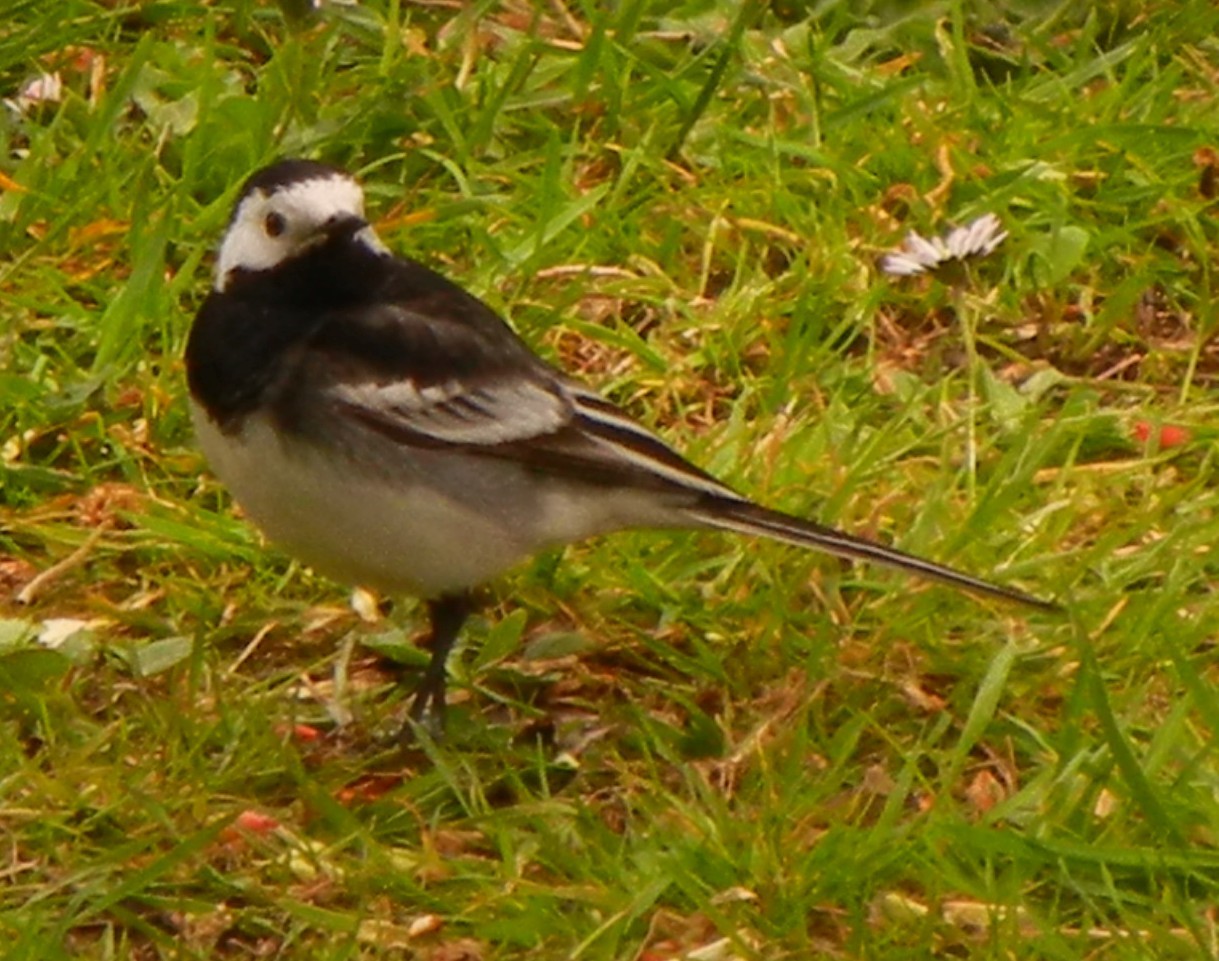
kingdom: Animalia
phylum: Chordata
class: Aves
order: Passeriformes
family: Motacillidae
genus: Motacilla
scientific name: Motacilla alba
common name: White wagtail
